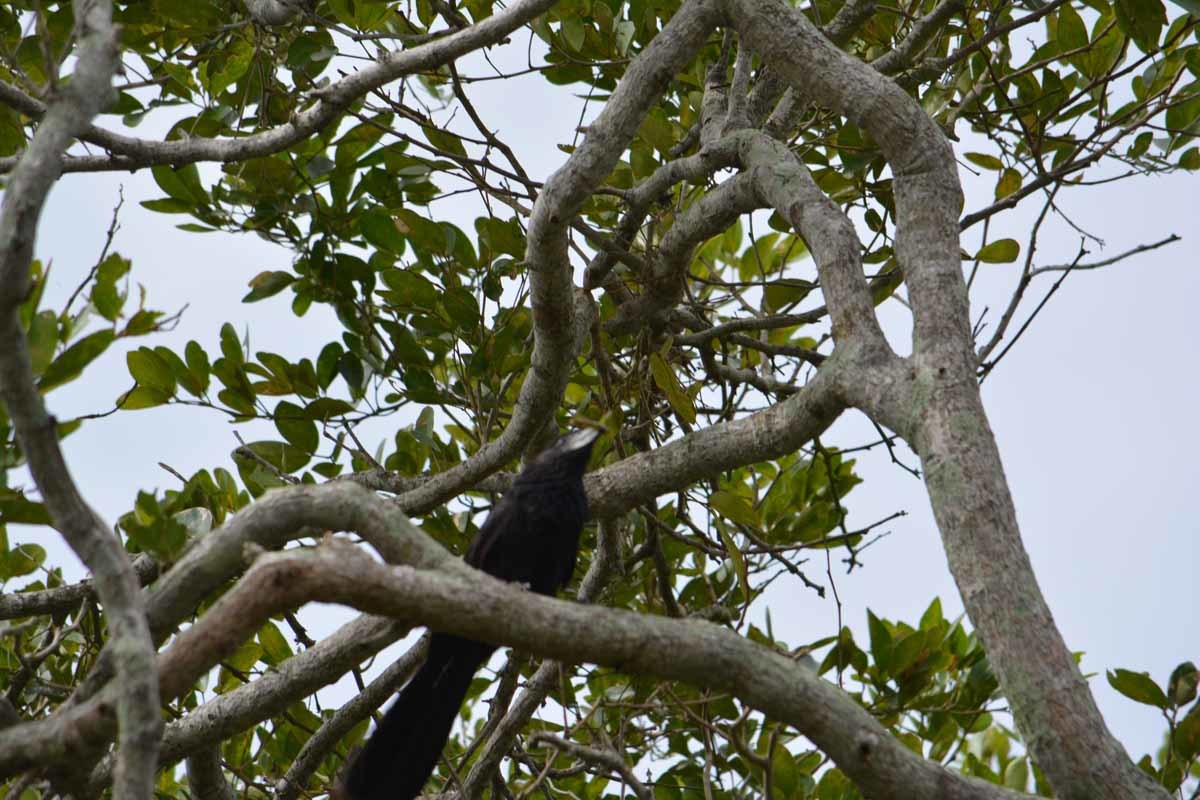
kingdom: Animalia
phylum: Chordata
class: Aves
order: Cuculiformes
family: Cuculidae
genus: Crotophaga
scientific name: Crotophaga sulcirostris
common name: Groove-billed ani
